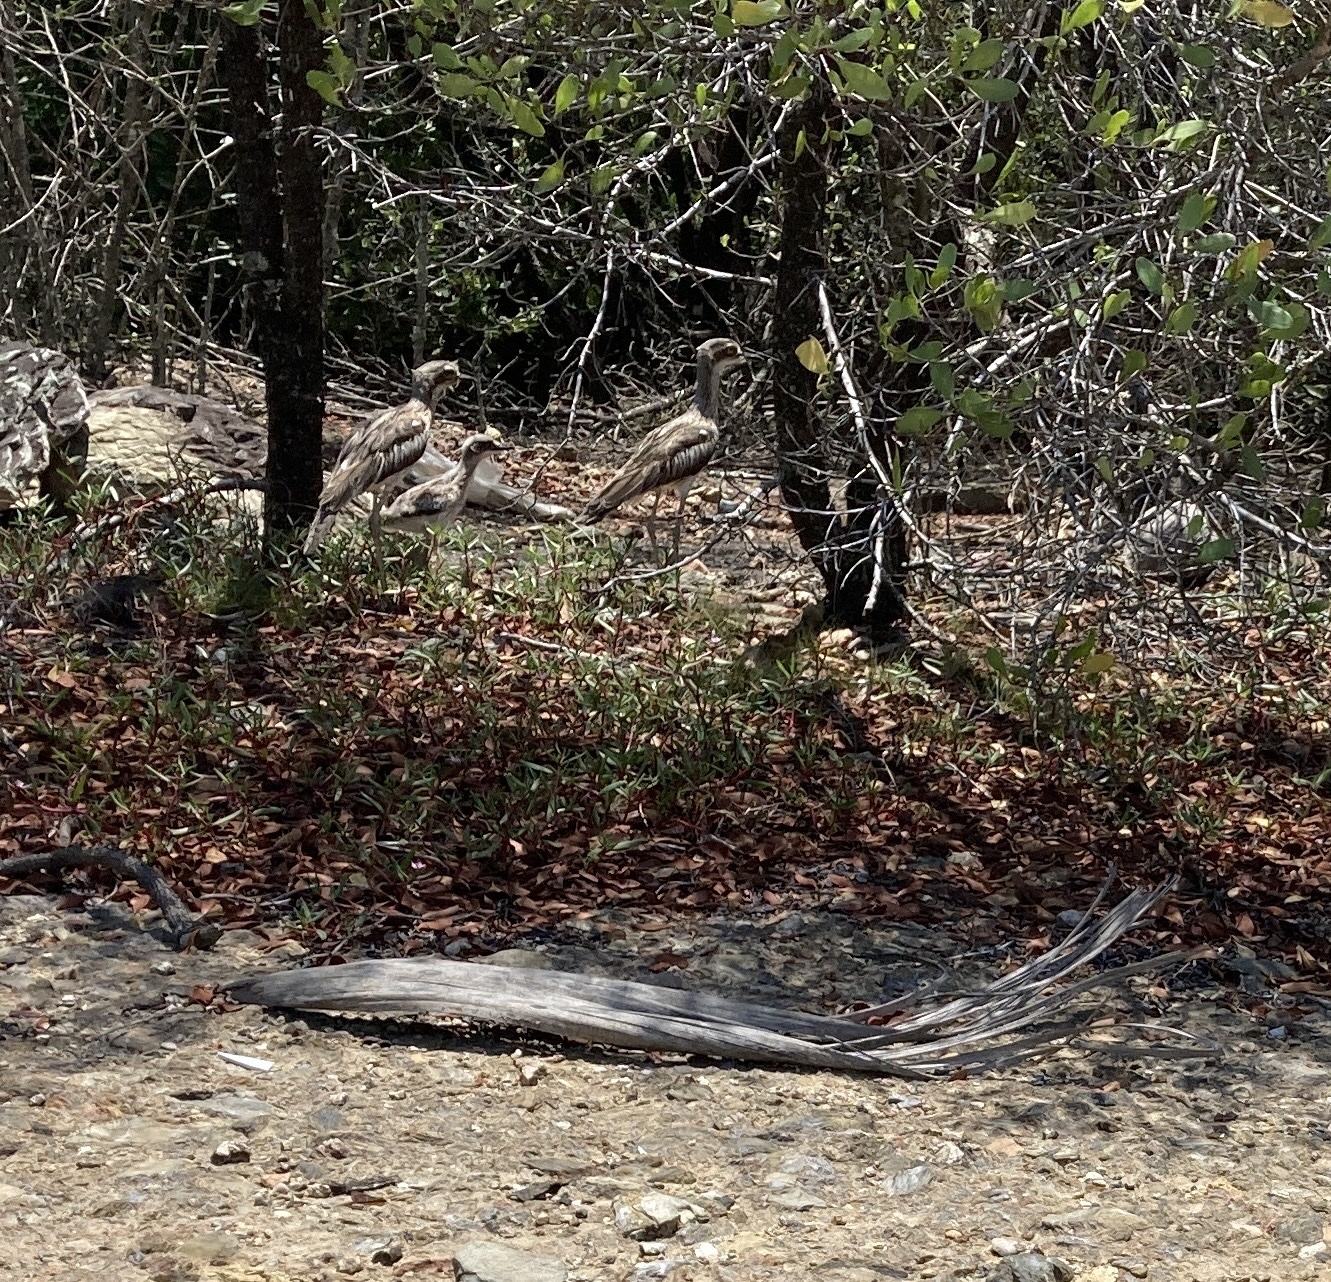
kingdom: Animalia
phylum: Chordata
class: Aves
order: Charadriiformes
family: Burhinidae
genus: Burhinus
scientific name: Burhinus grallarius
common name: Bush stone-curlew
